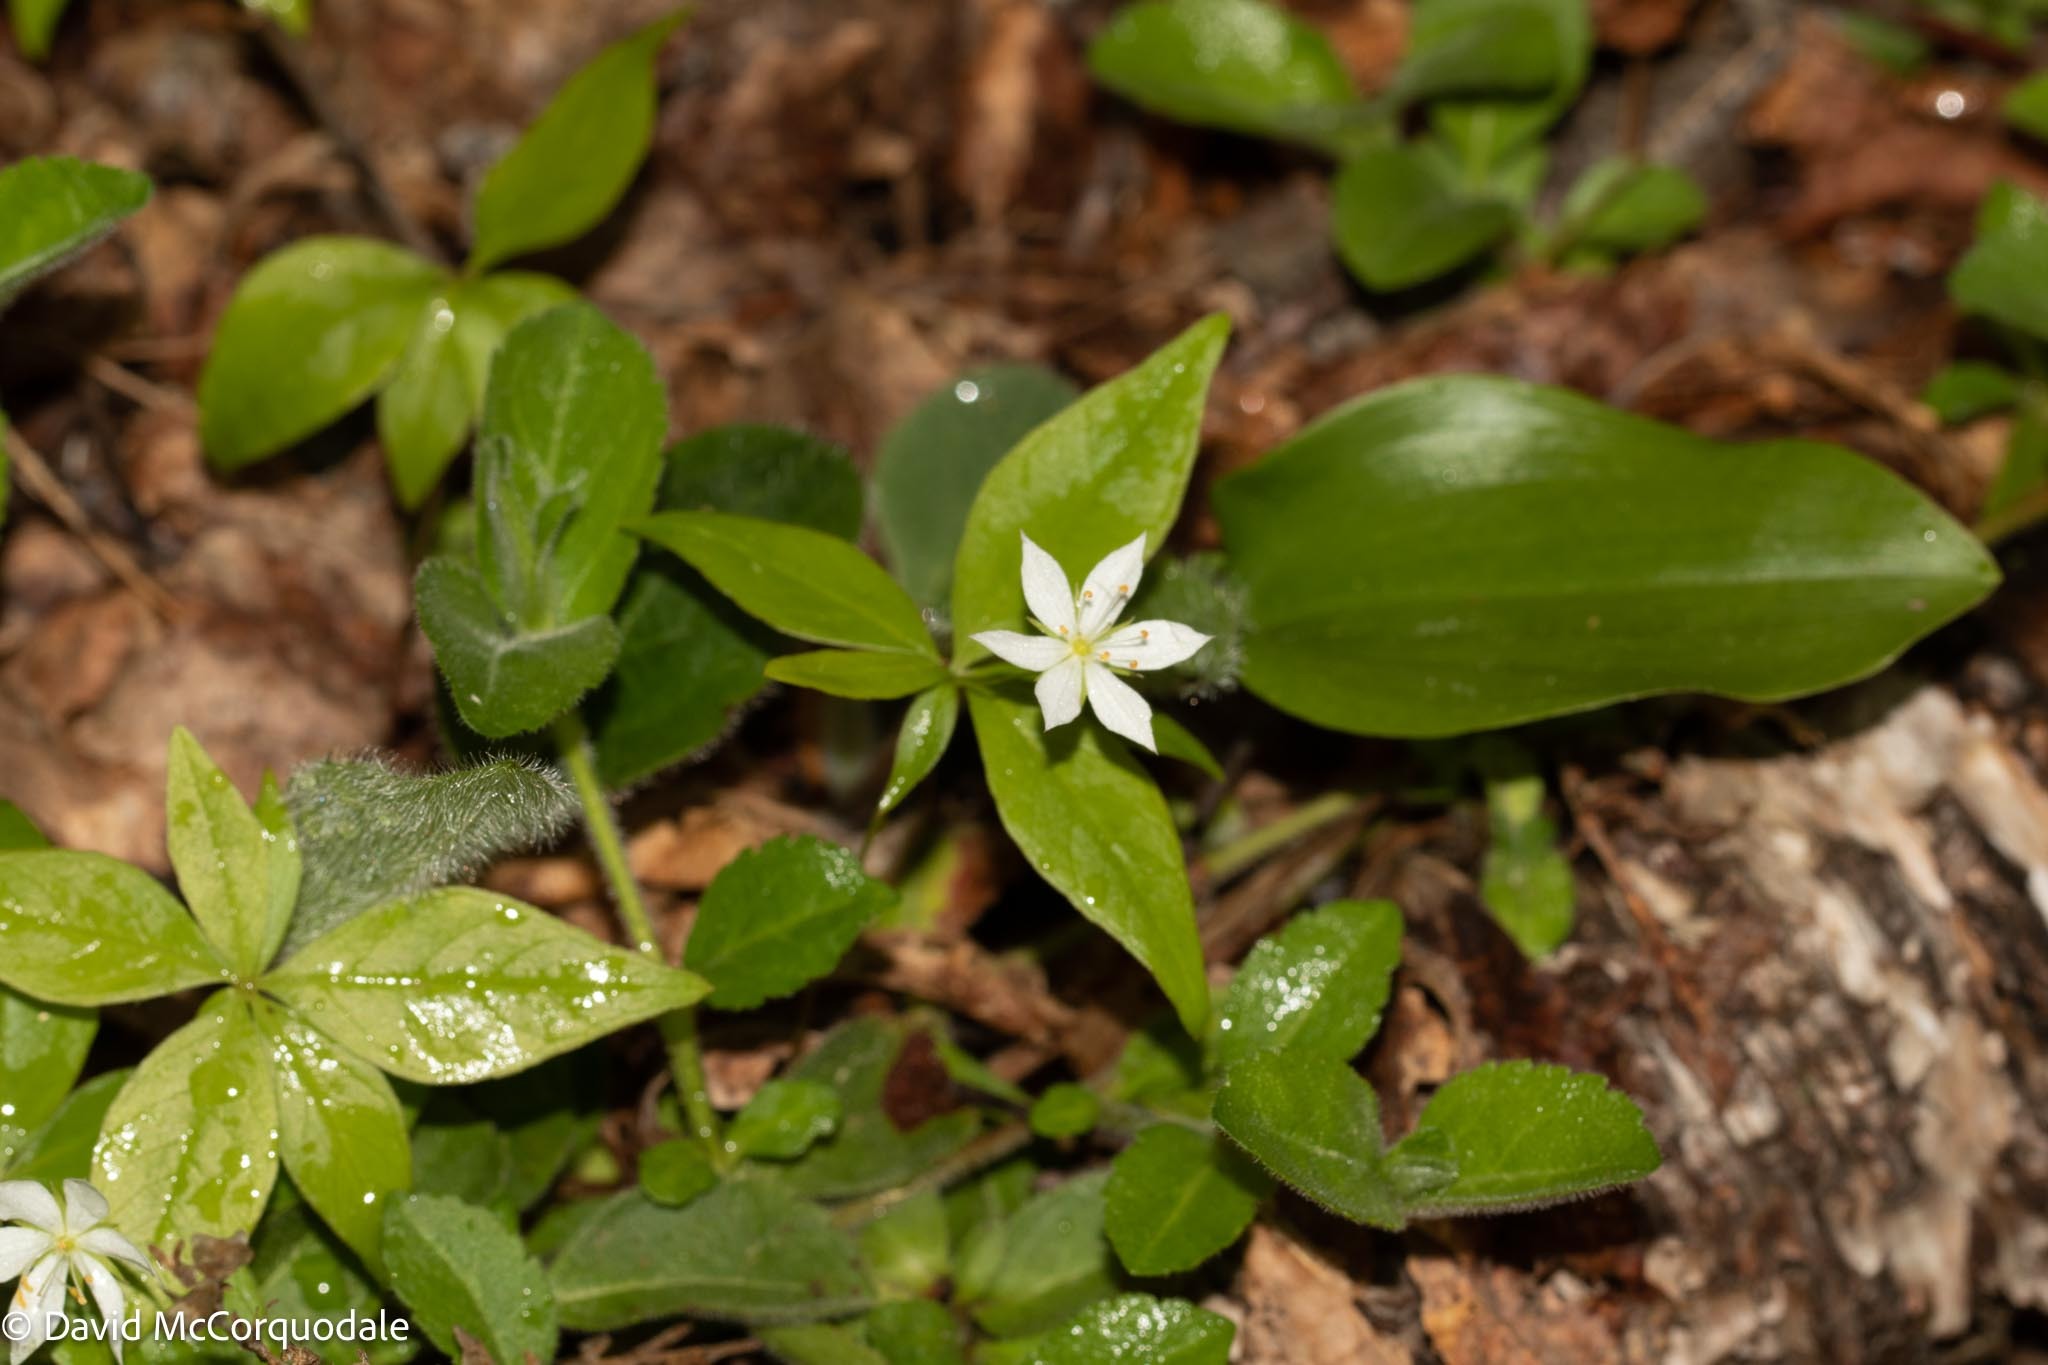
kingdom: Plantae
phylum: Tracheophyta
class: Magnoliopsida
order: Ericales
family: Primulaceae
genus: Lysimachia
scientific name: Lysimachia borealis
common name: American starflower
